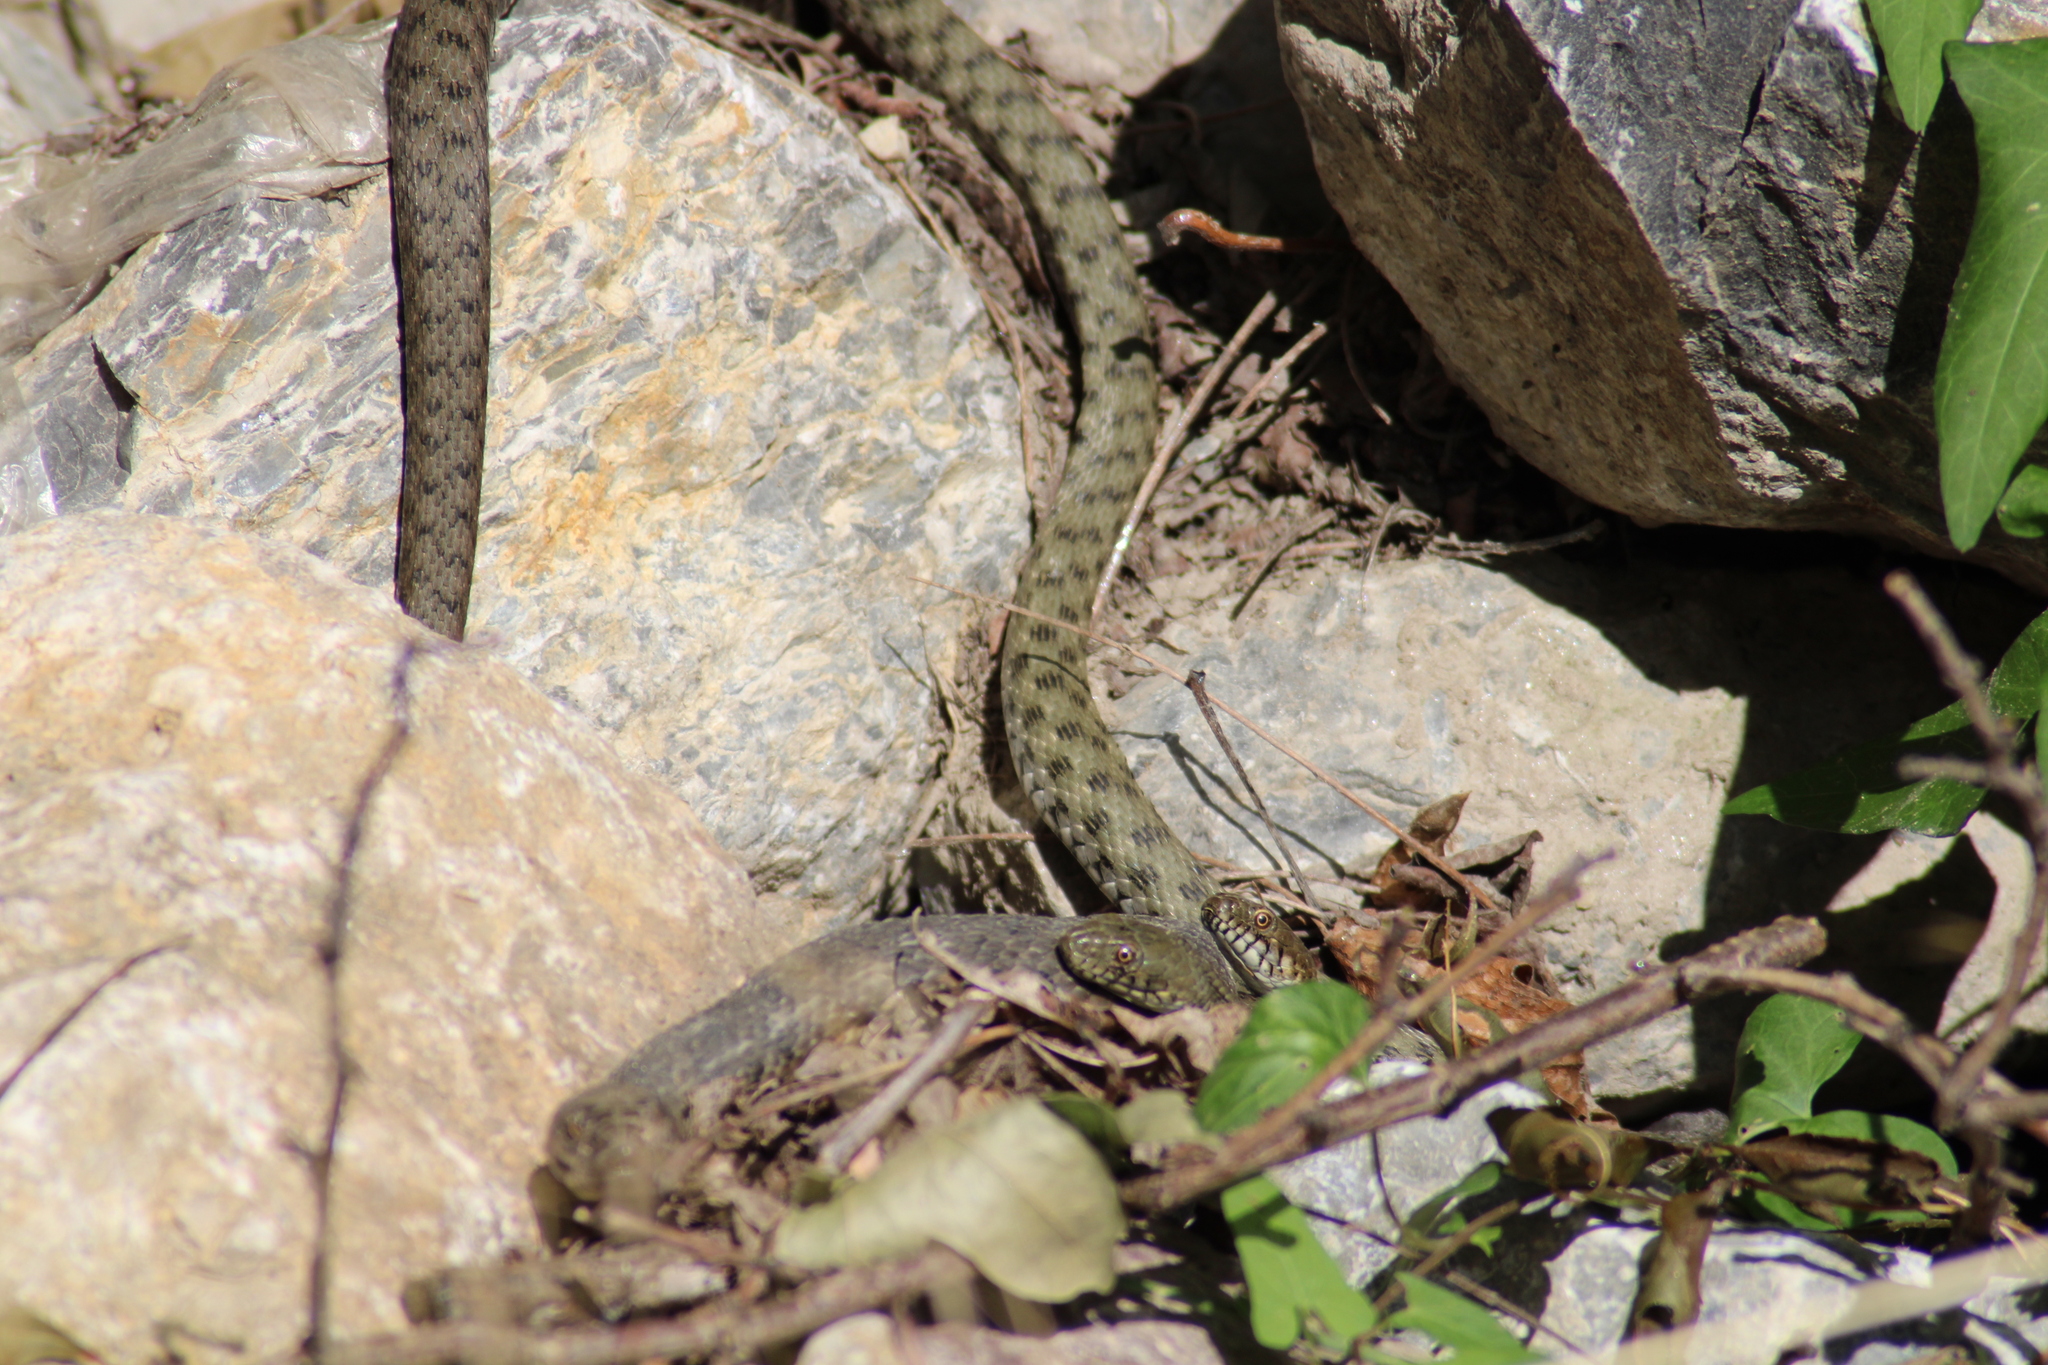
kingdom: Animalia
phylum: Chordata
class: Squamata
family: Colubridae
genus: Natrix
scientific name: Natrix tessellata
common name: Dice snake
